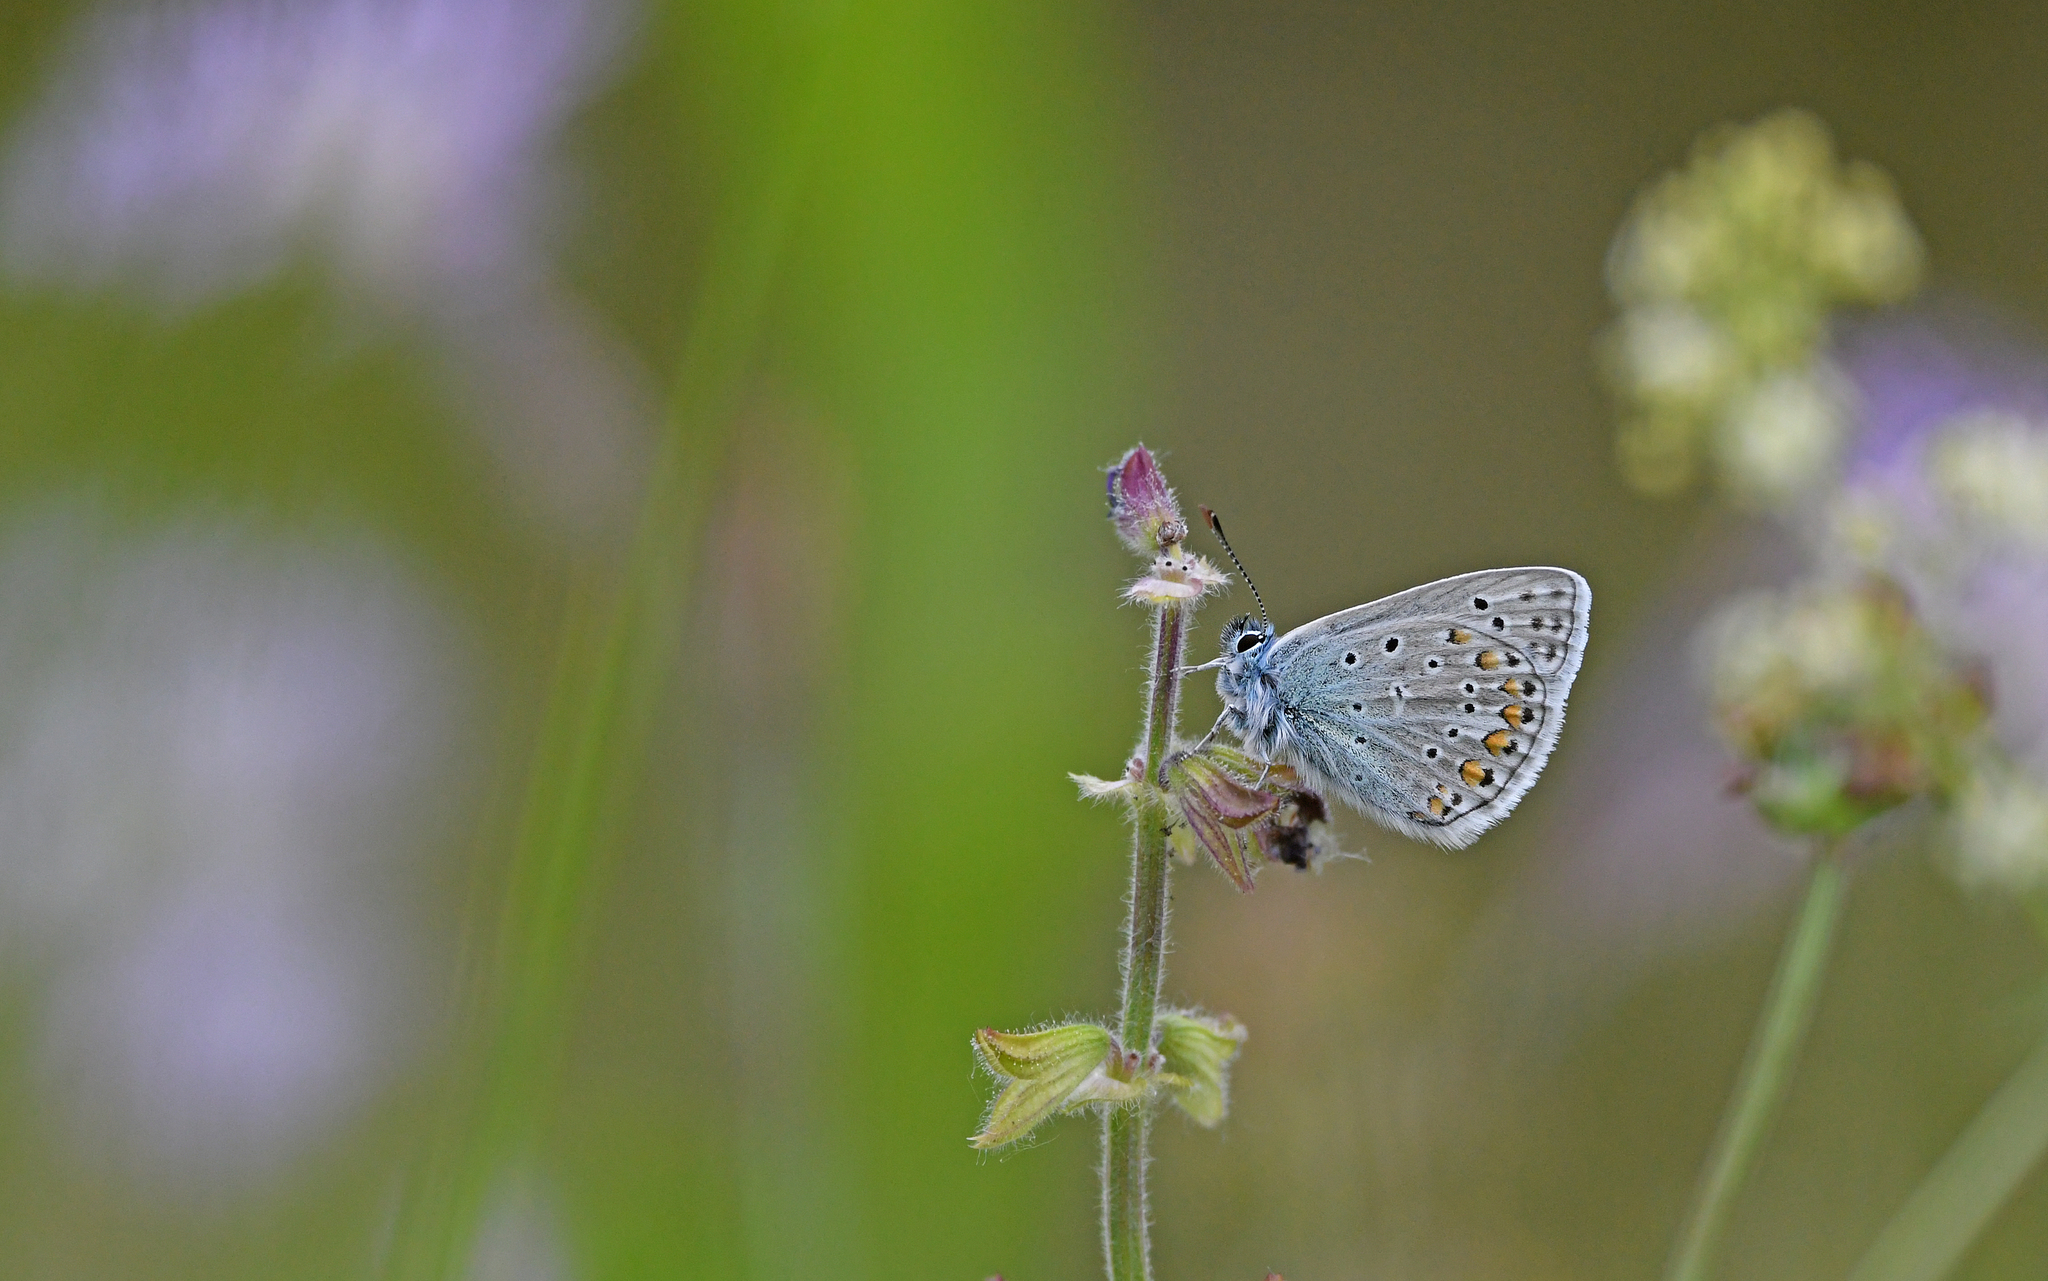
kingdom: Animalia
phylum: Arthropoda
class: Insecta
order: Lepidoptera
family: Lycaenidae
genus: Polyommatus
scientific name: Polyommatus icarus
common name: Common blue
